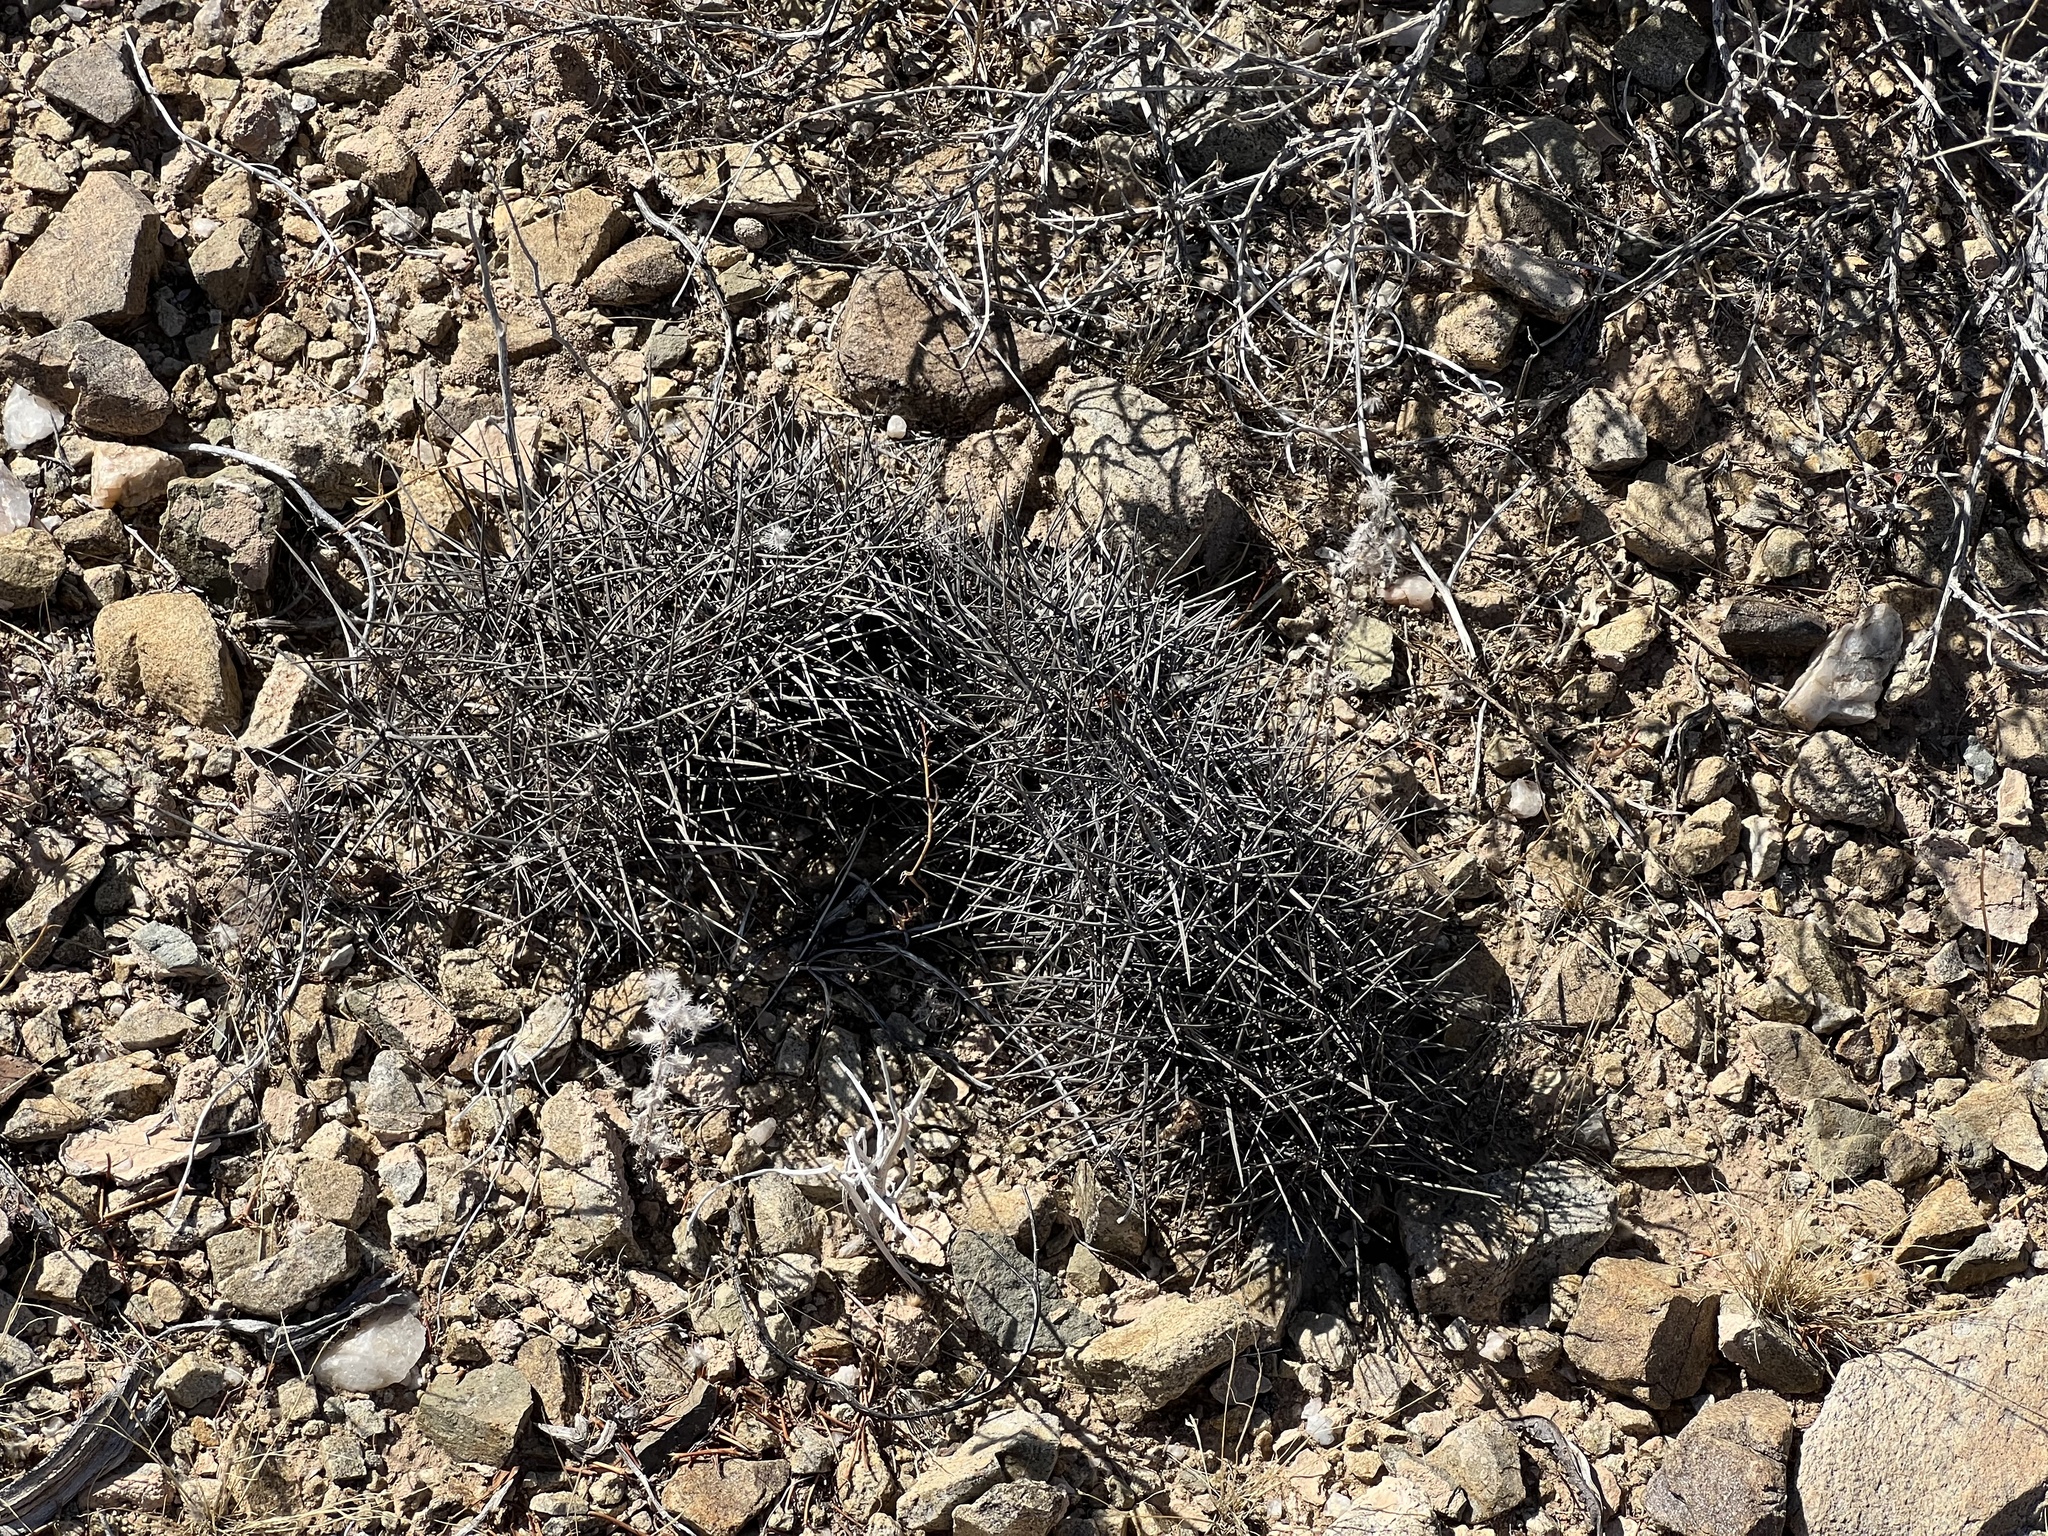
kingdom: Plantae
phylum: Tracheophyta
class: Magnoliopsida
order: Caryophyllales
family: Cactaceae
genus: Echinocereus
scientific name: Echinocereus engelmannii
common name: Engelmann's hedgehog cactus
